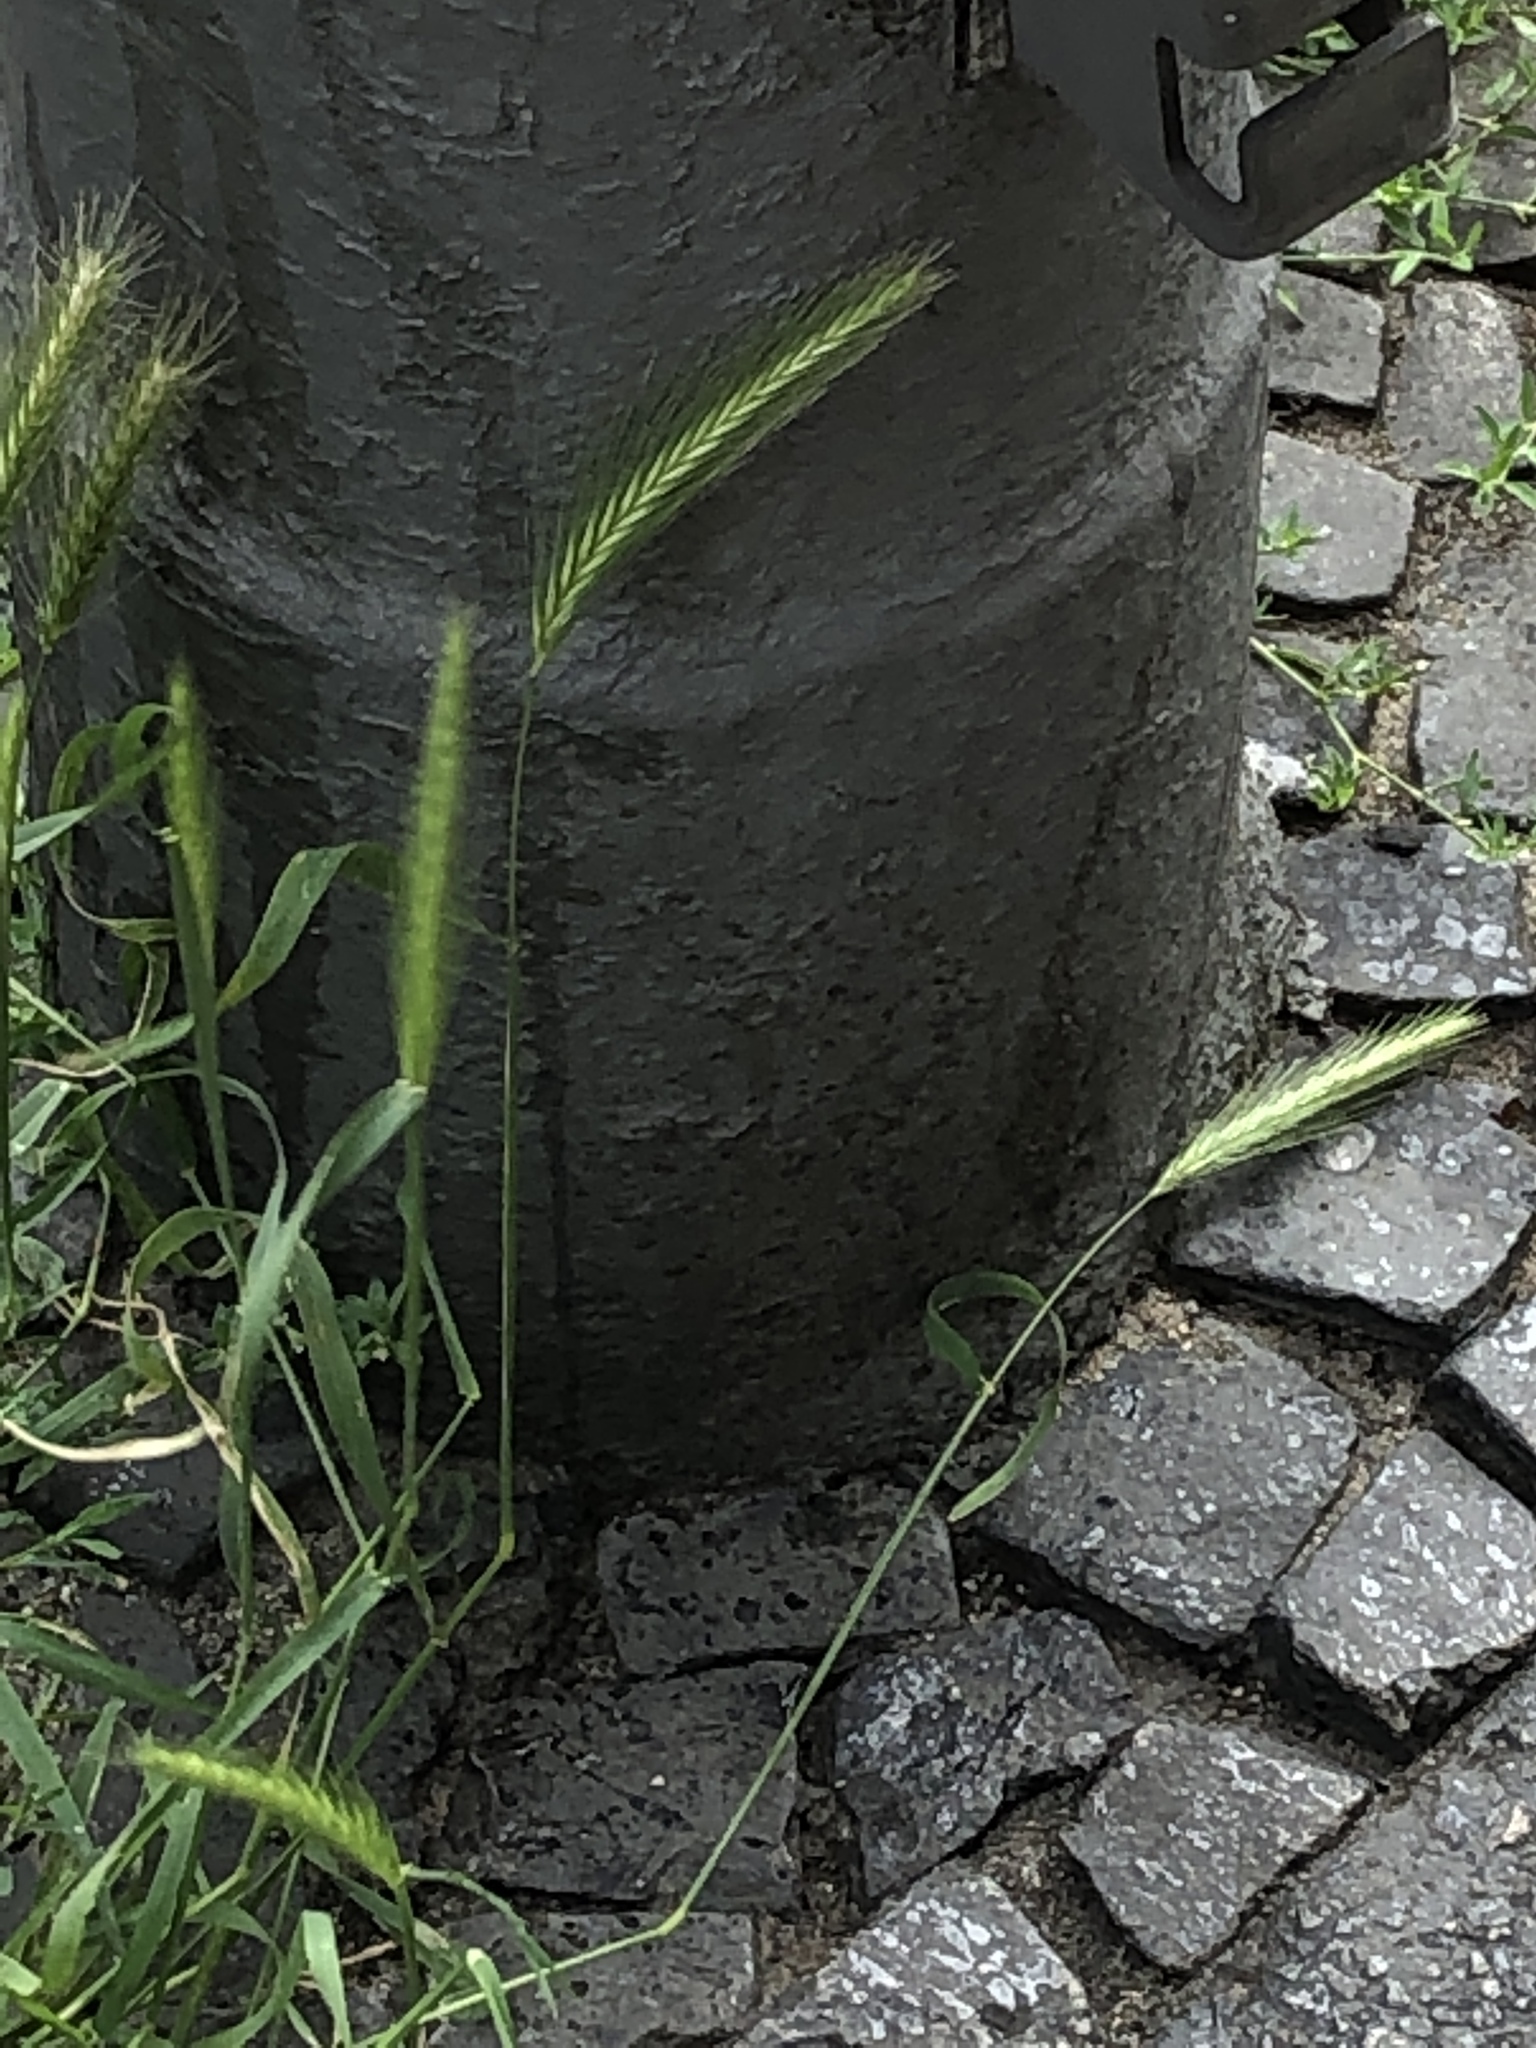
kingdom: Plantae
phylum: Tracheophyta
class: Liliopsida
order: Poales
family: Poaceae
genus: Hordeum
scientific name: Hordeum murinum
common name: Wall barley
